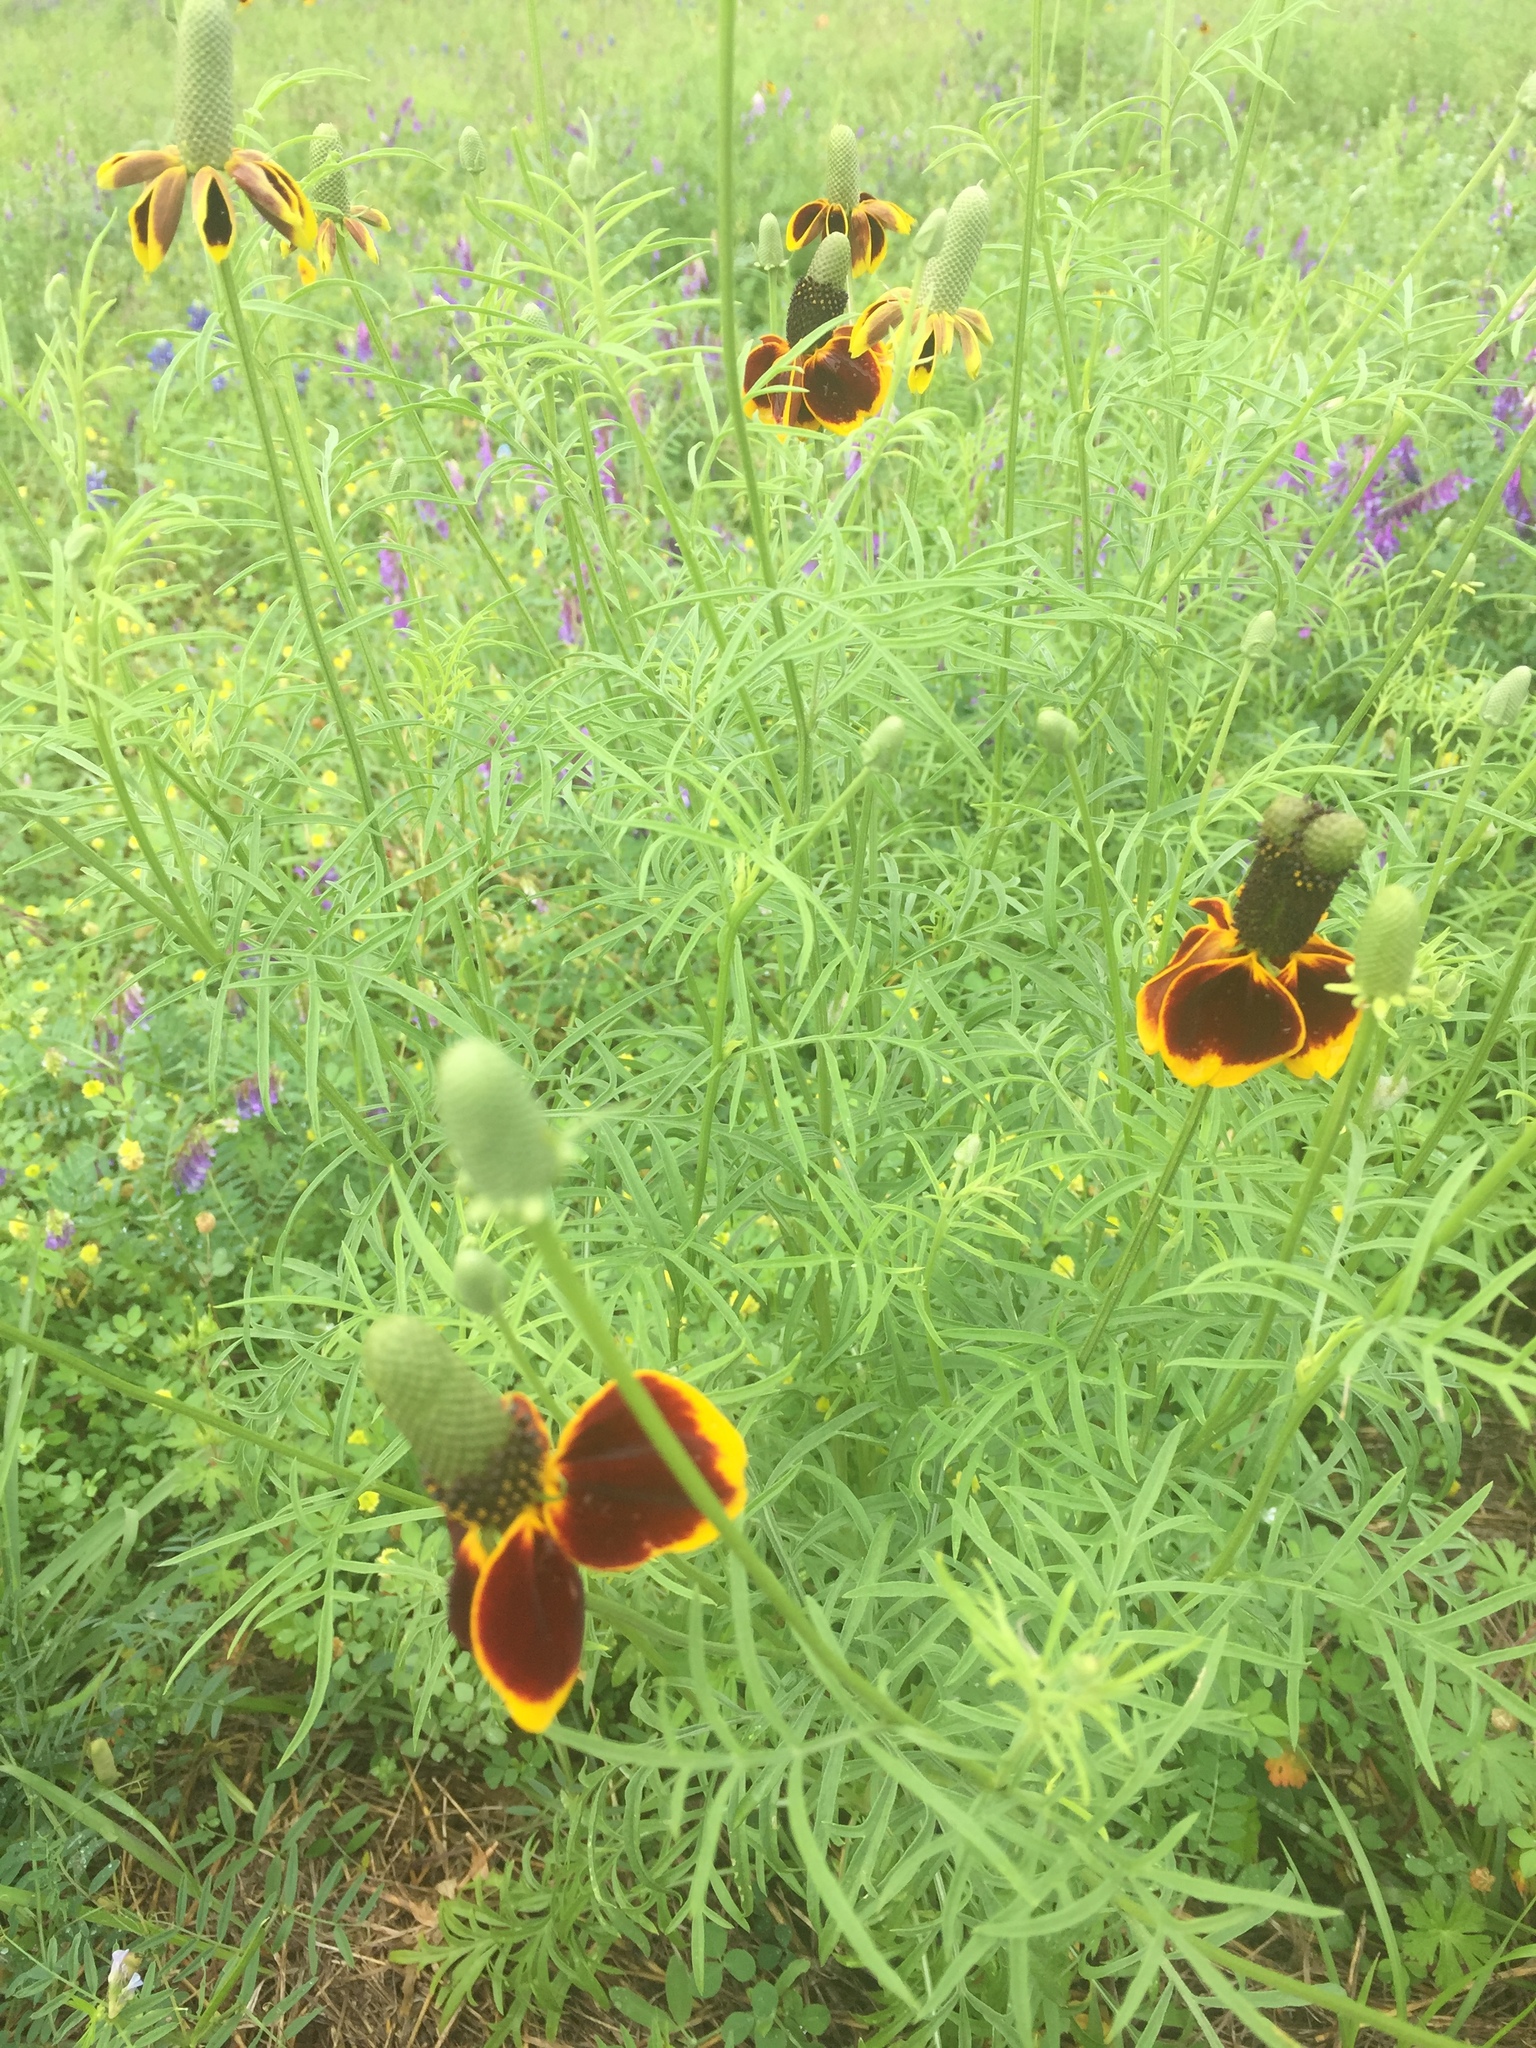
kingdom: Plantae
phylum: Tracheophyta
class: Magnoliopsida
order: Asterales
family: Asteraceae
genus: Ratibida
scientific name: Ratibida columnifera
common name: Prairie coneflower
